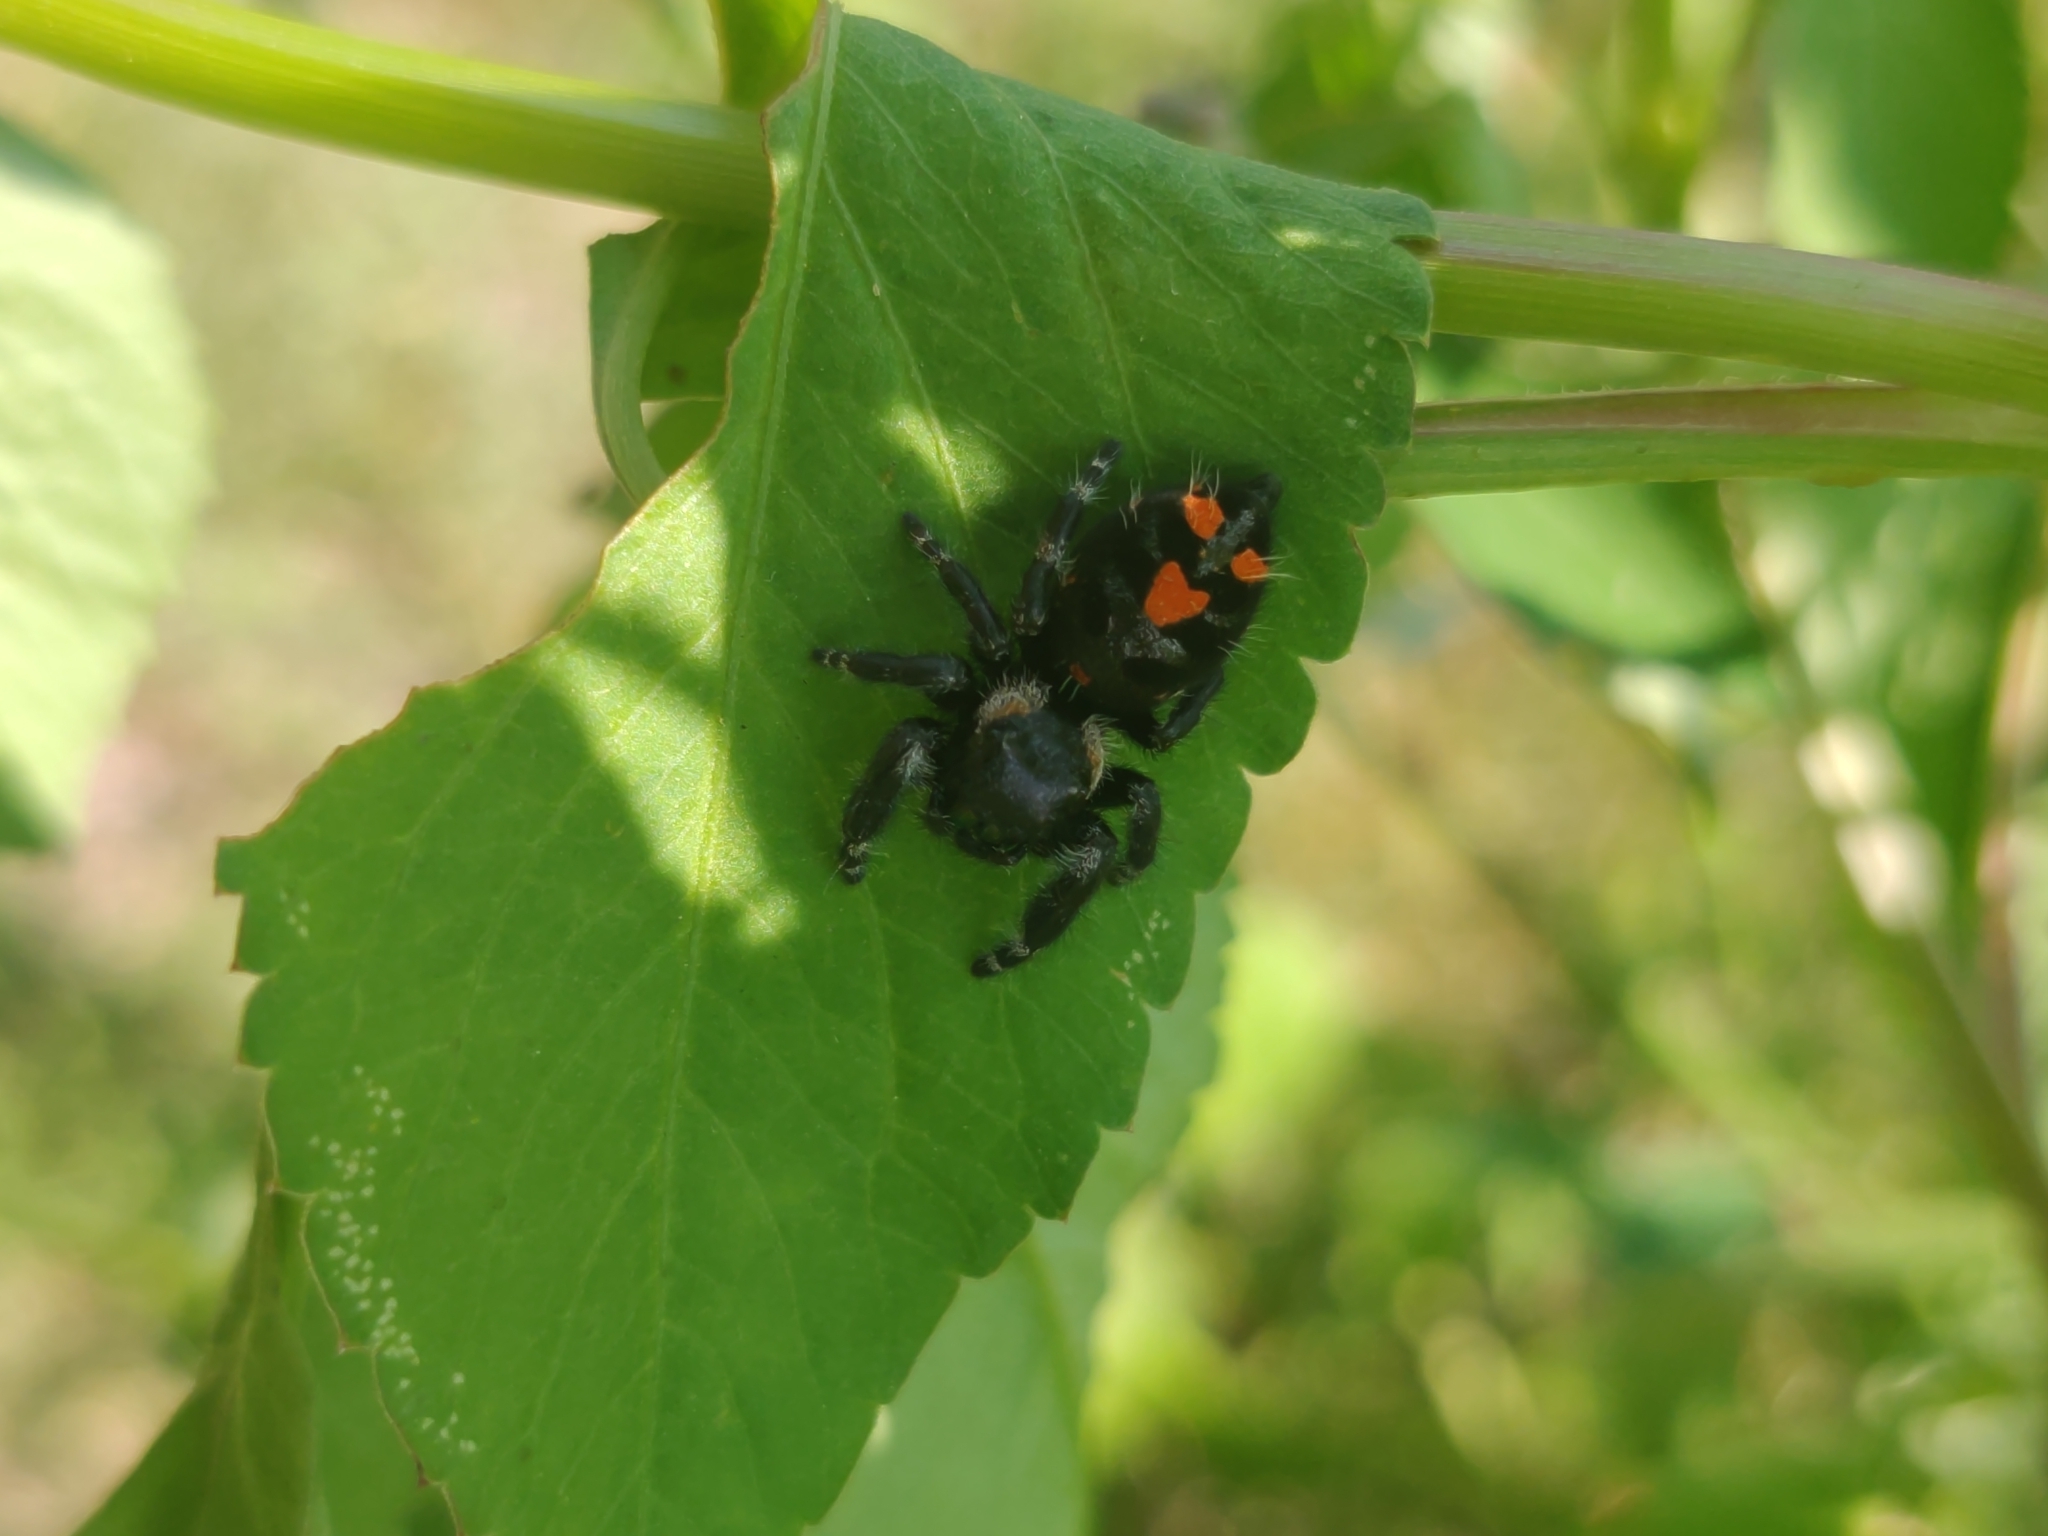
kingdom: Animalia
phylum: Arthropoda
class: Arachnida
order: Araneae
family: Salticidae
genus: Phidippus
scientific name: Phidippus audax
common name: Bold jumper
